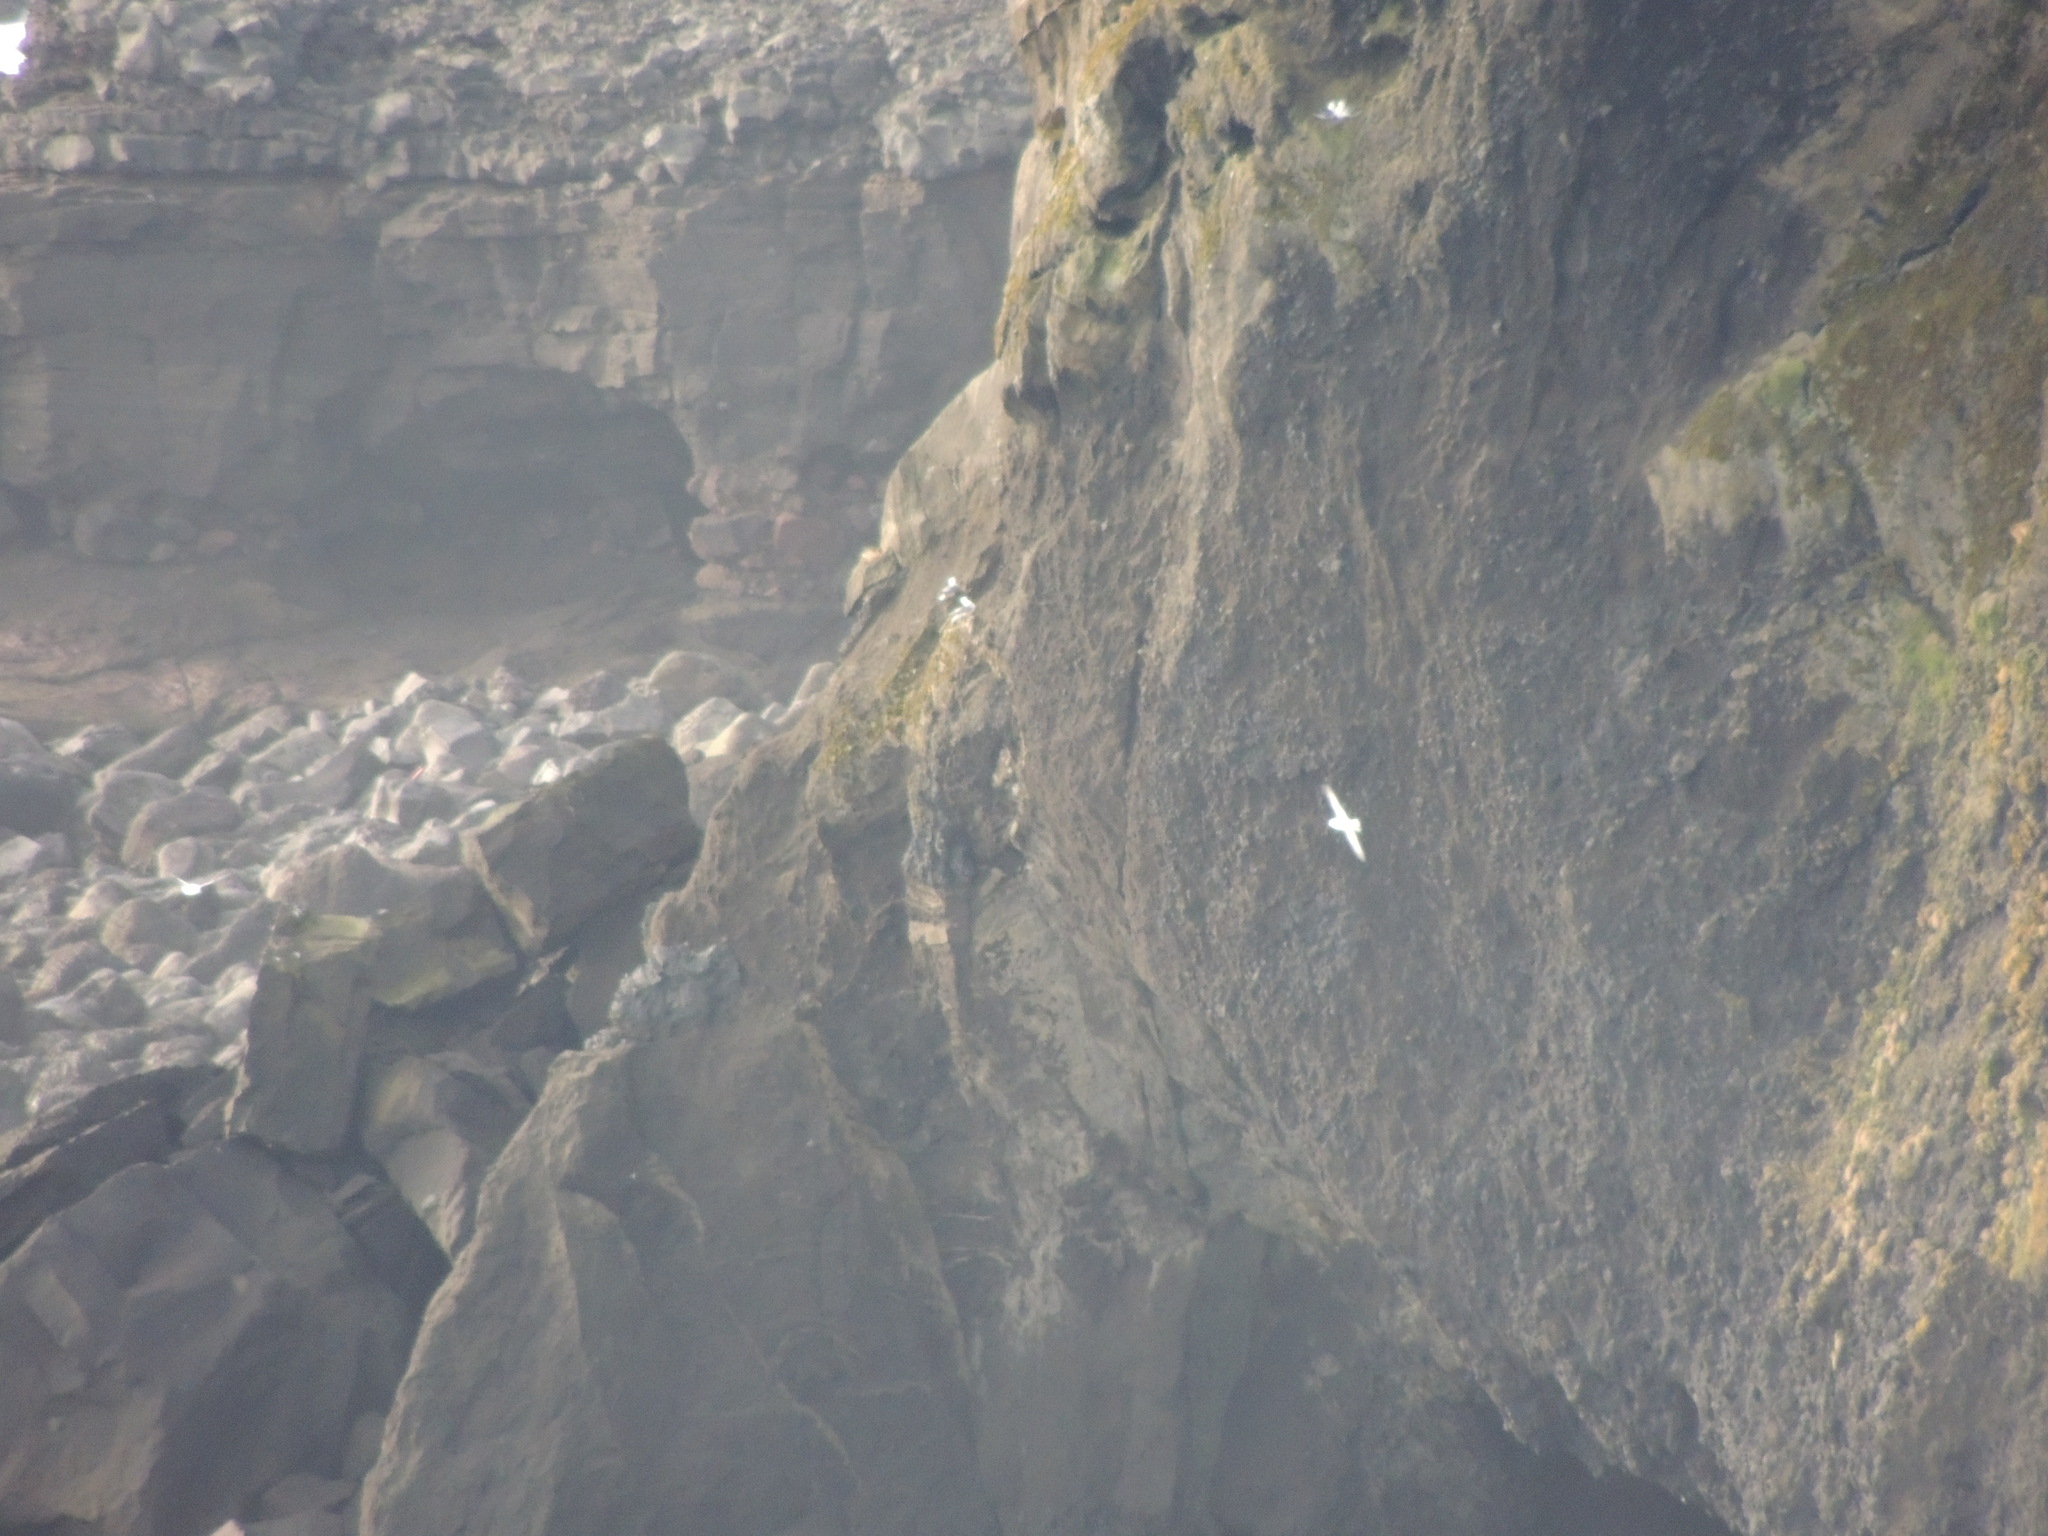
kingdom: Animalia
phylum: Chordata
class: Aves
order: Procellariiformes
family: Procellariidae
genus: Fulmarus
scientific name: Fulmarus glacialis
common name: Northern fulmar
